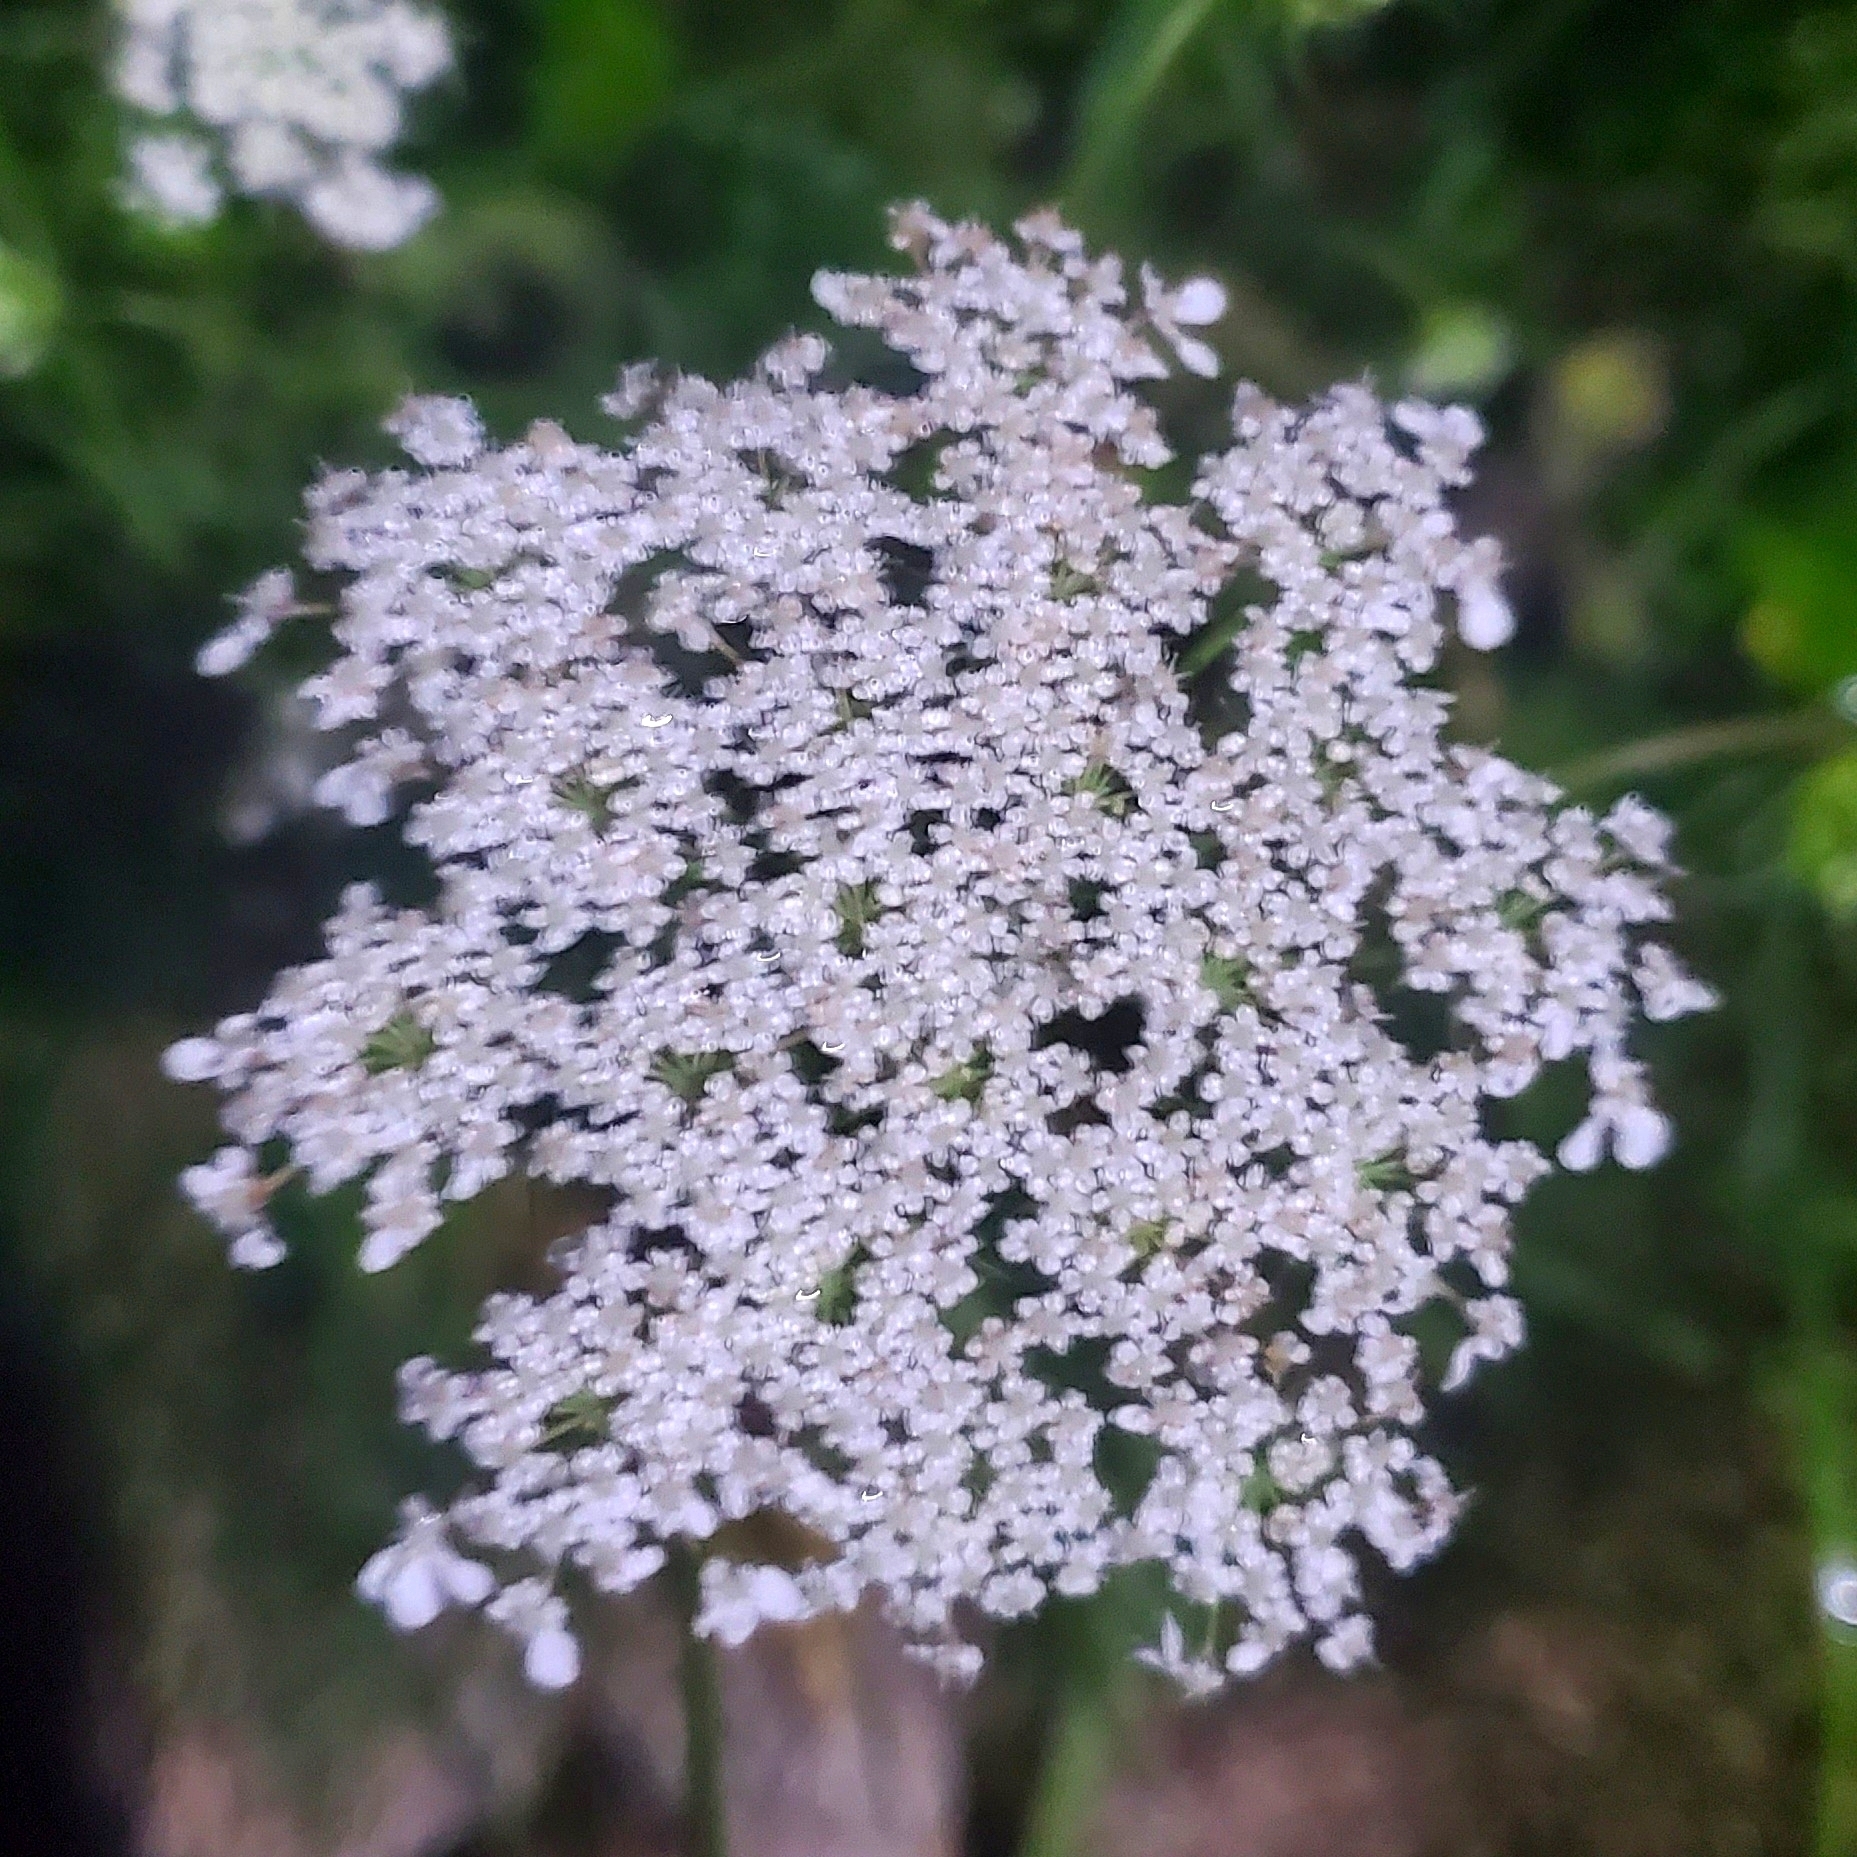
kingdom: Plantae
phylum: Tracheophyta
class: Magnoliopsida
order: Apiales
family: Apiaceae
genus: Daucus
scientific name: Daucus carota
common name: Wild carrot
